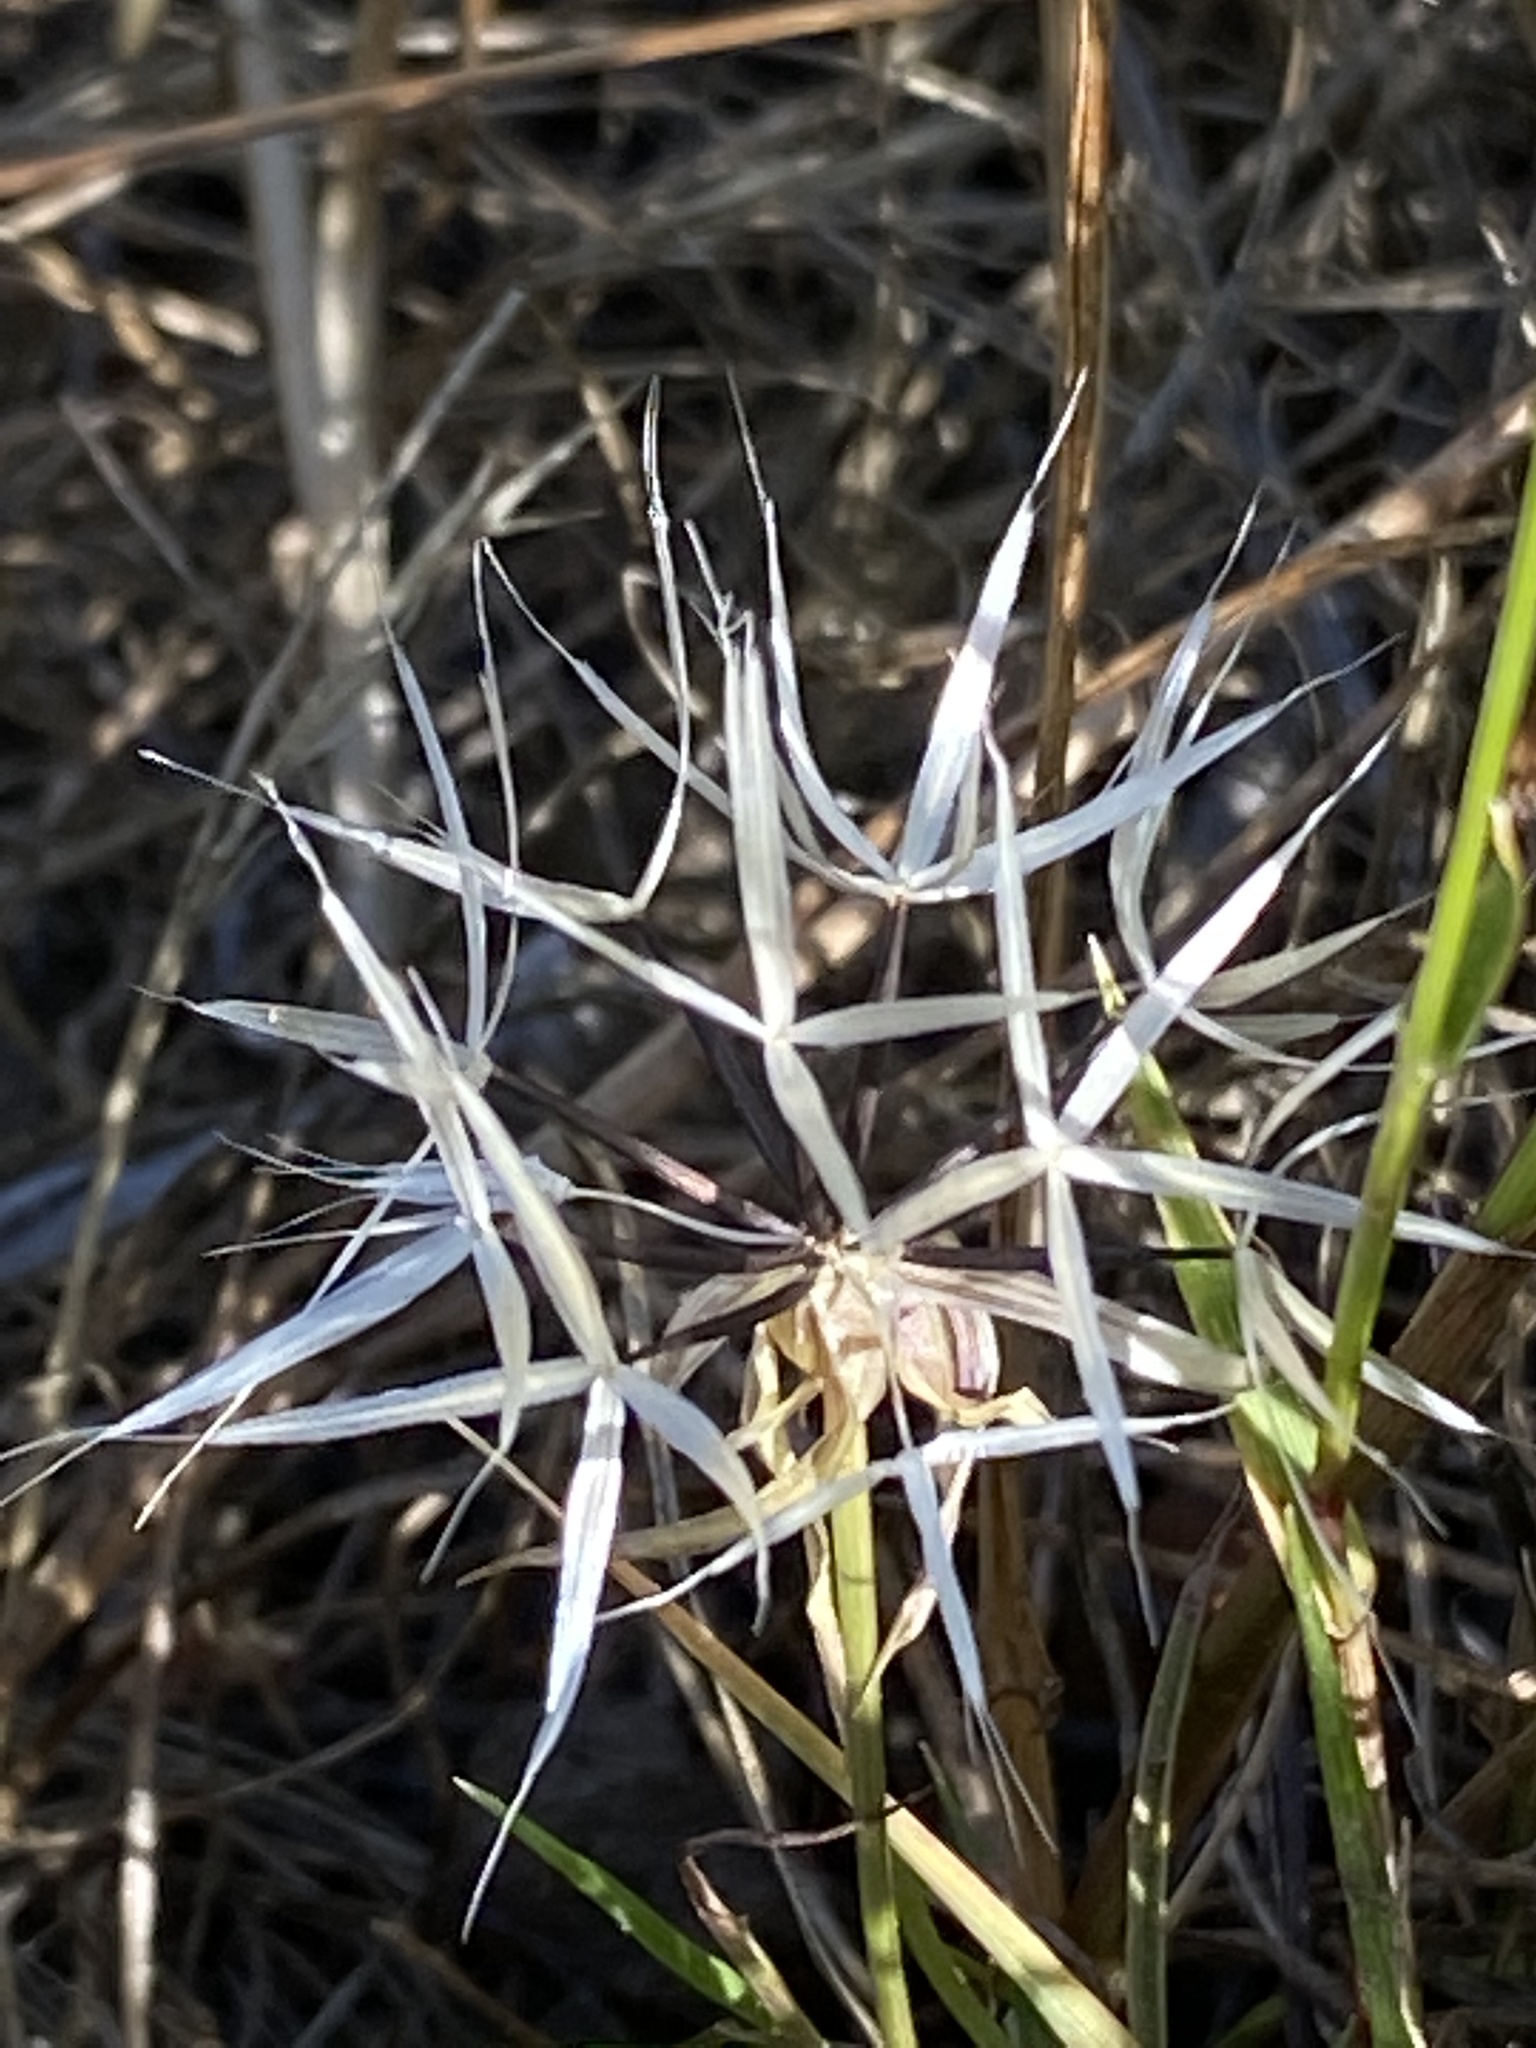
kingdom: Plantae
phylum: Tracheophyta
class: Magnoliopsida
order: Asterales
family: Asteraceae
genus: Microseris
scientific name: Microseris lindleyi
